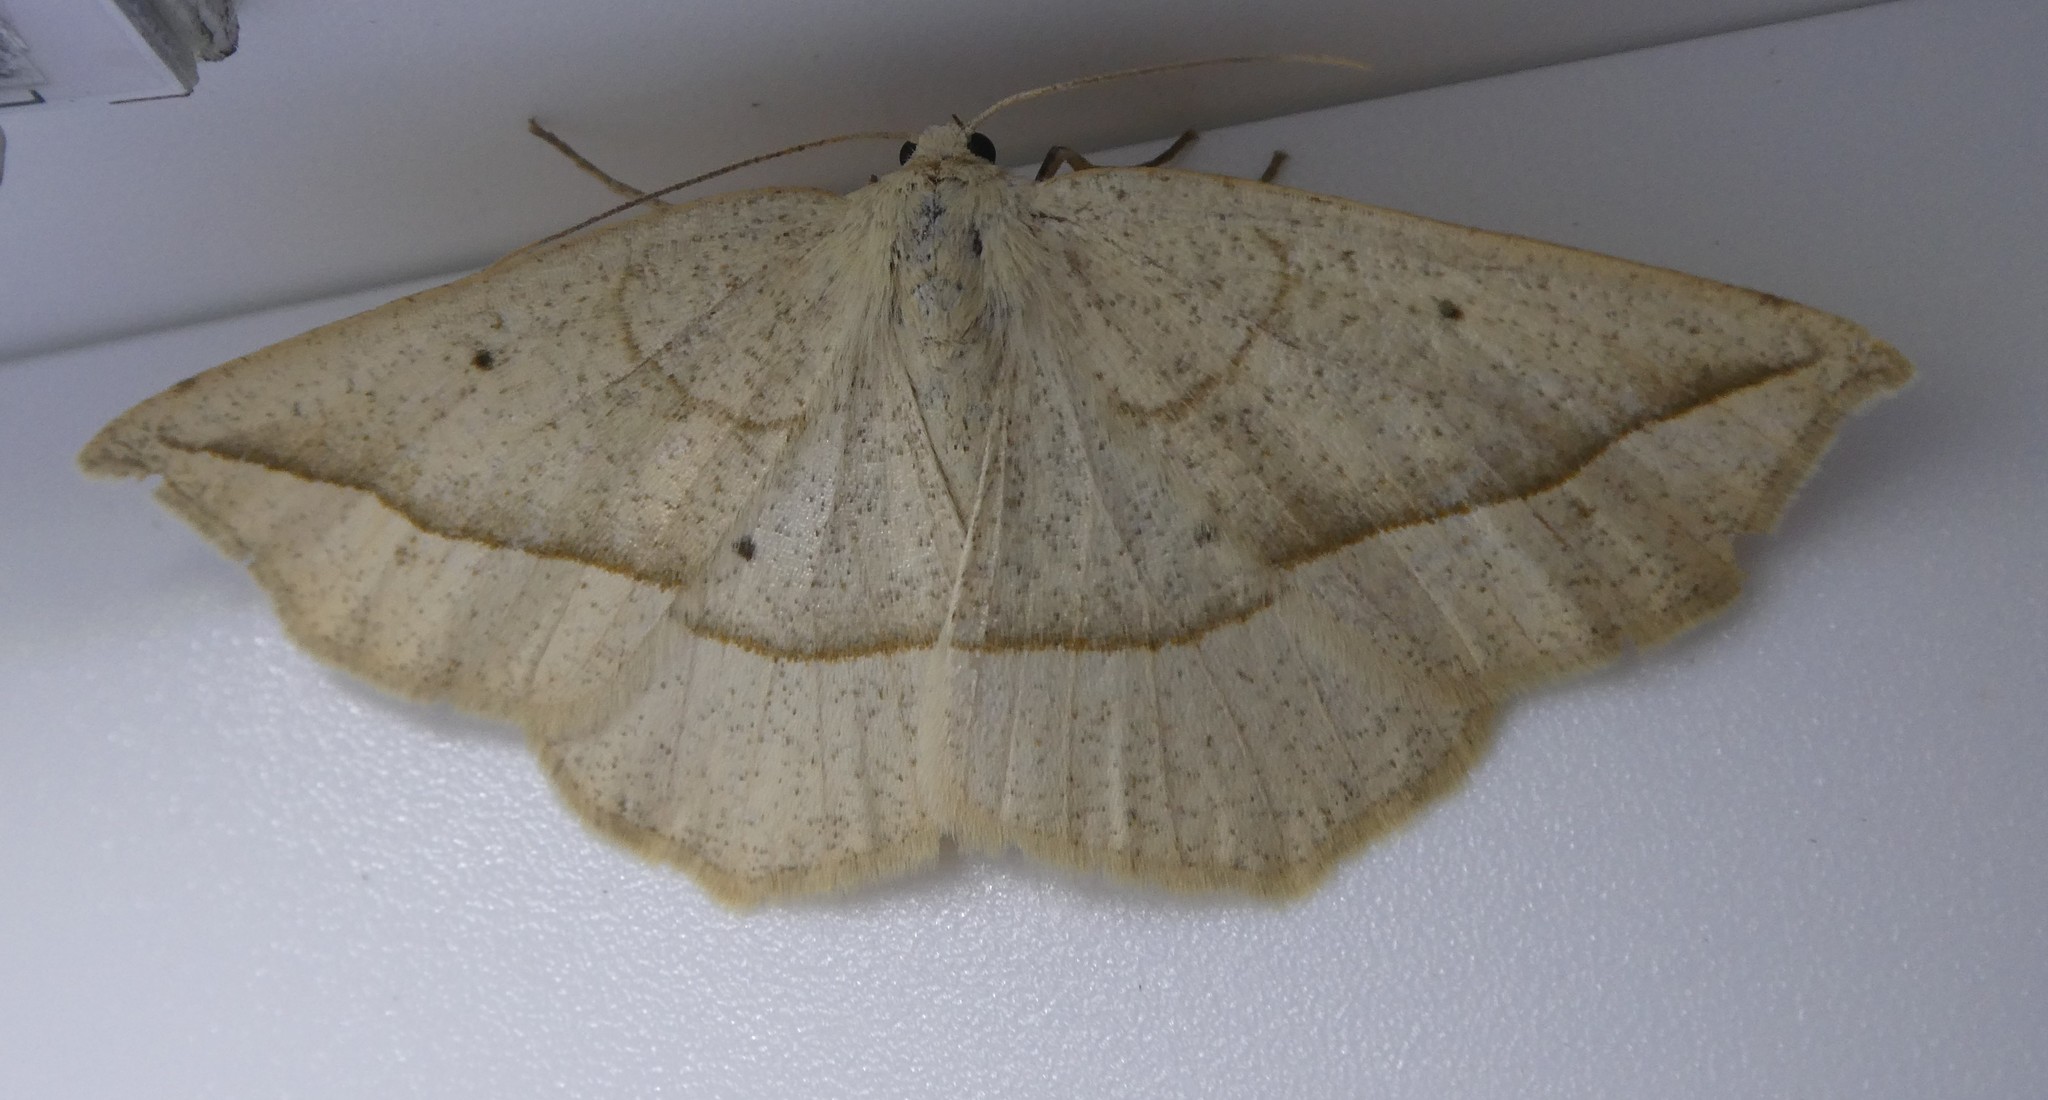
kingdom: Animalia
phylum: Arthropoda
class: Insecta
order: Lepidoptera
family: Geometridae
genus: Eusarca
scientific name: Eusarca confusaria
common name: Confused eusarca
